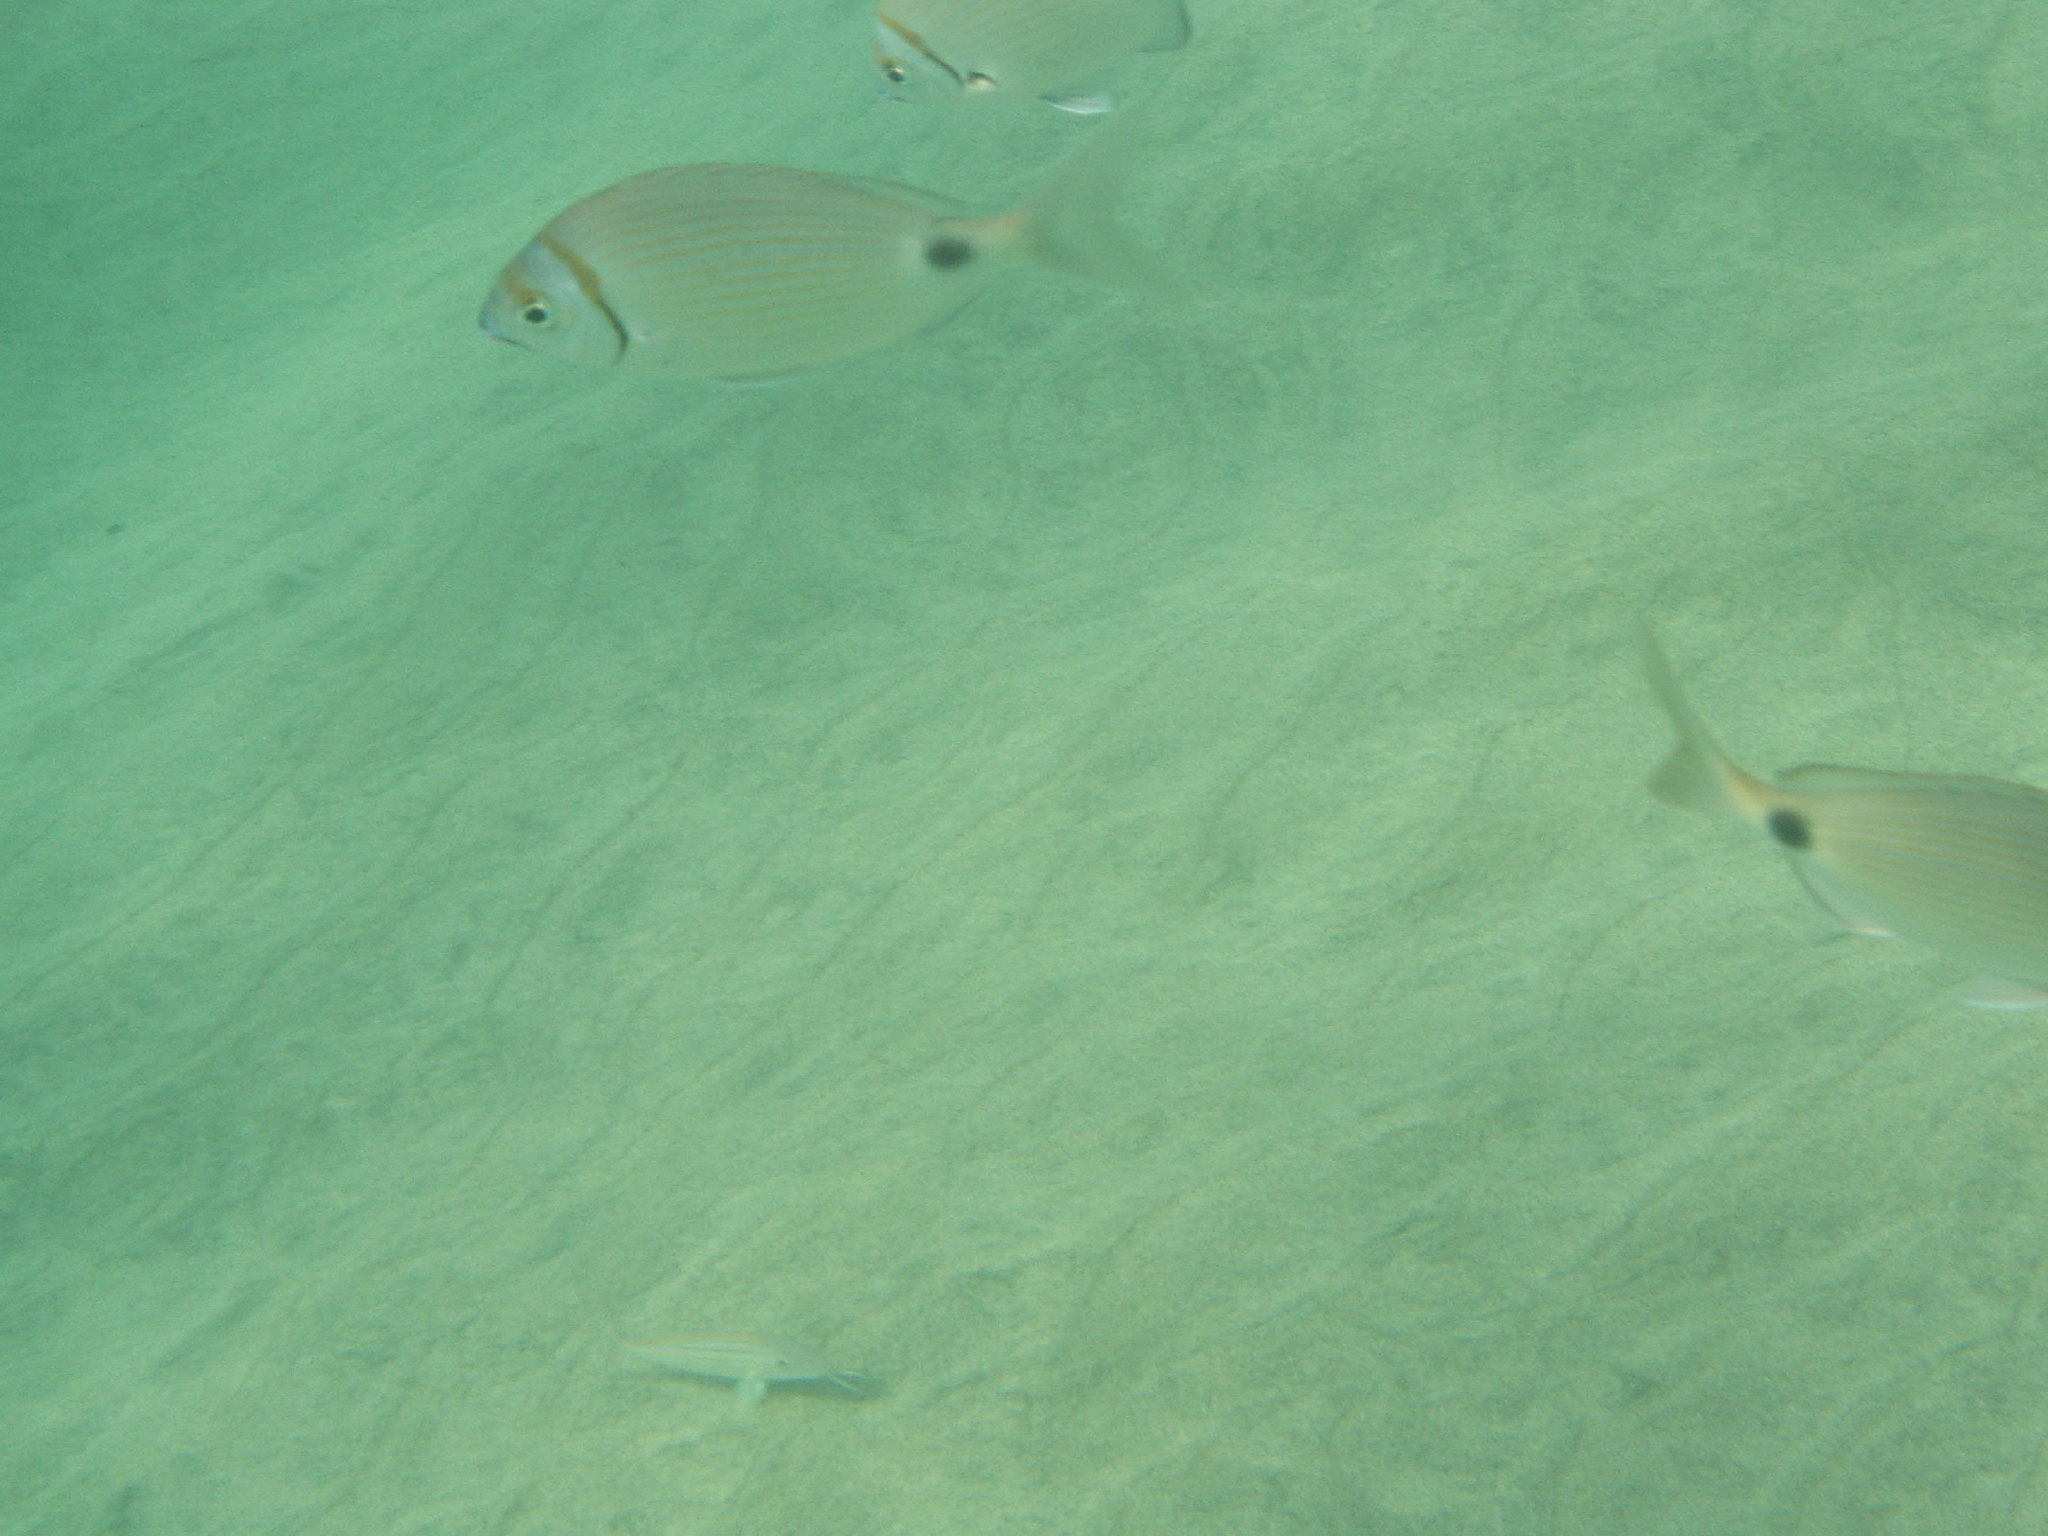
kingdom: Animalia
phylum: Chordata
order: Perciformes
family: Sparidae
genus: Diplodus
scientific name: Diplodus prayensis
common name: Two-banded seabream
